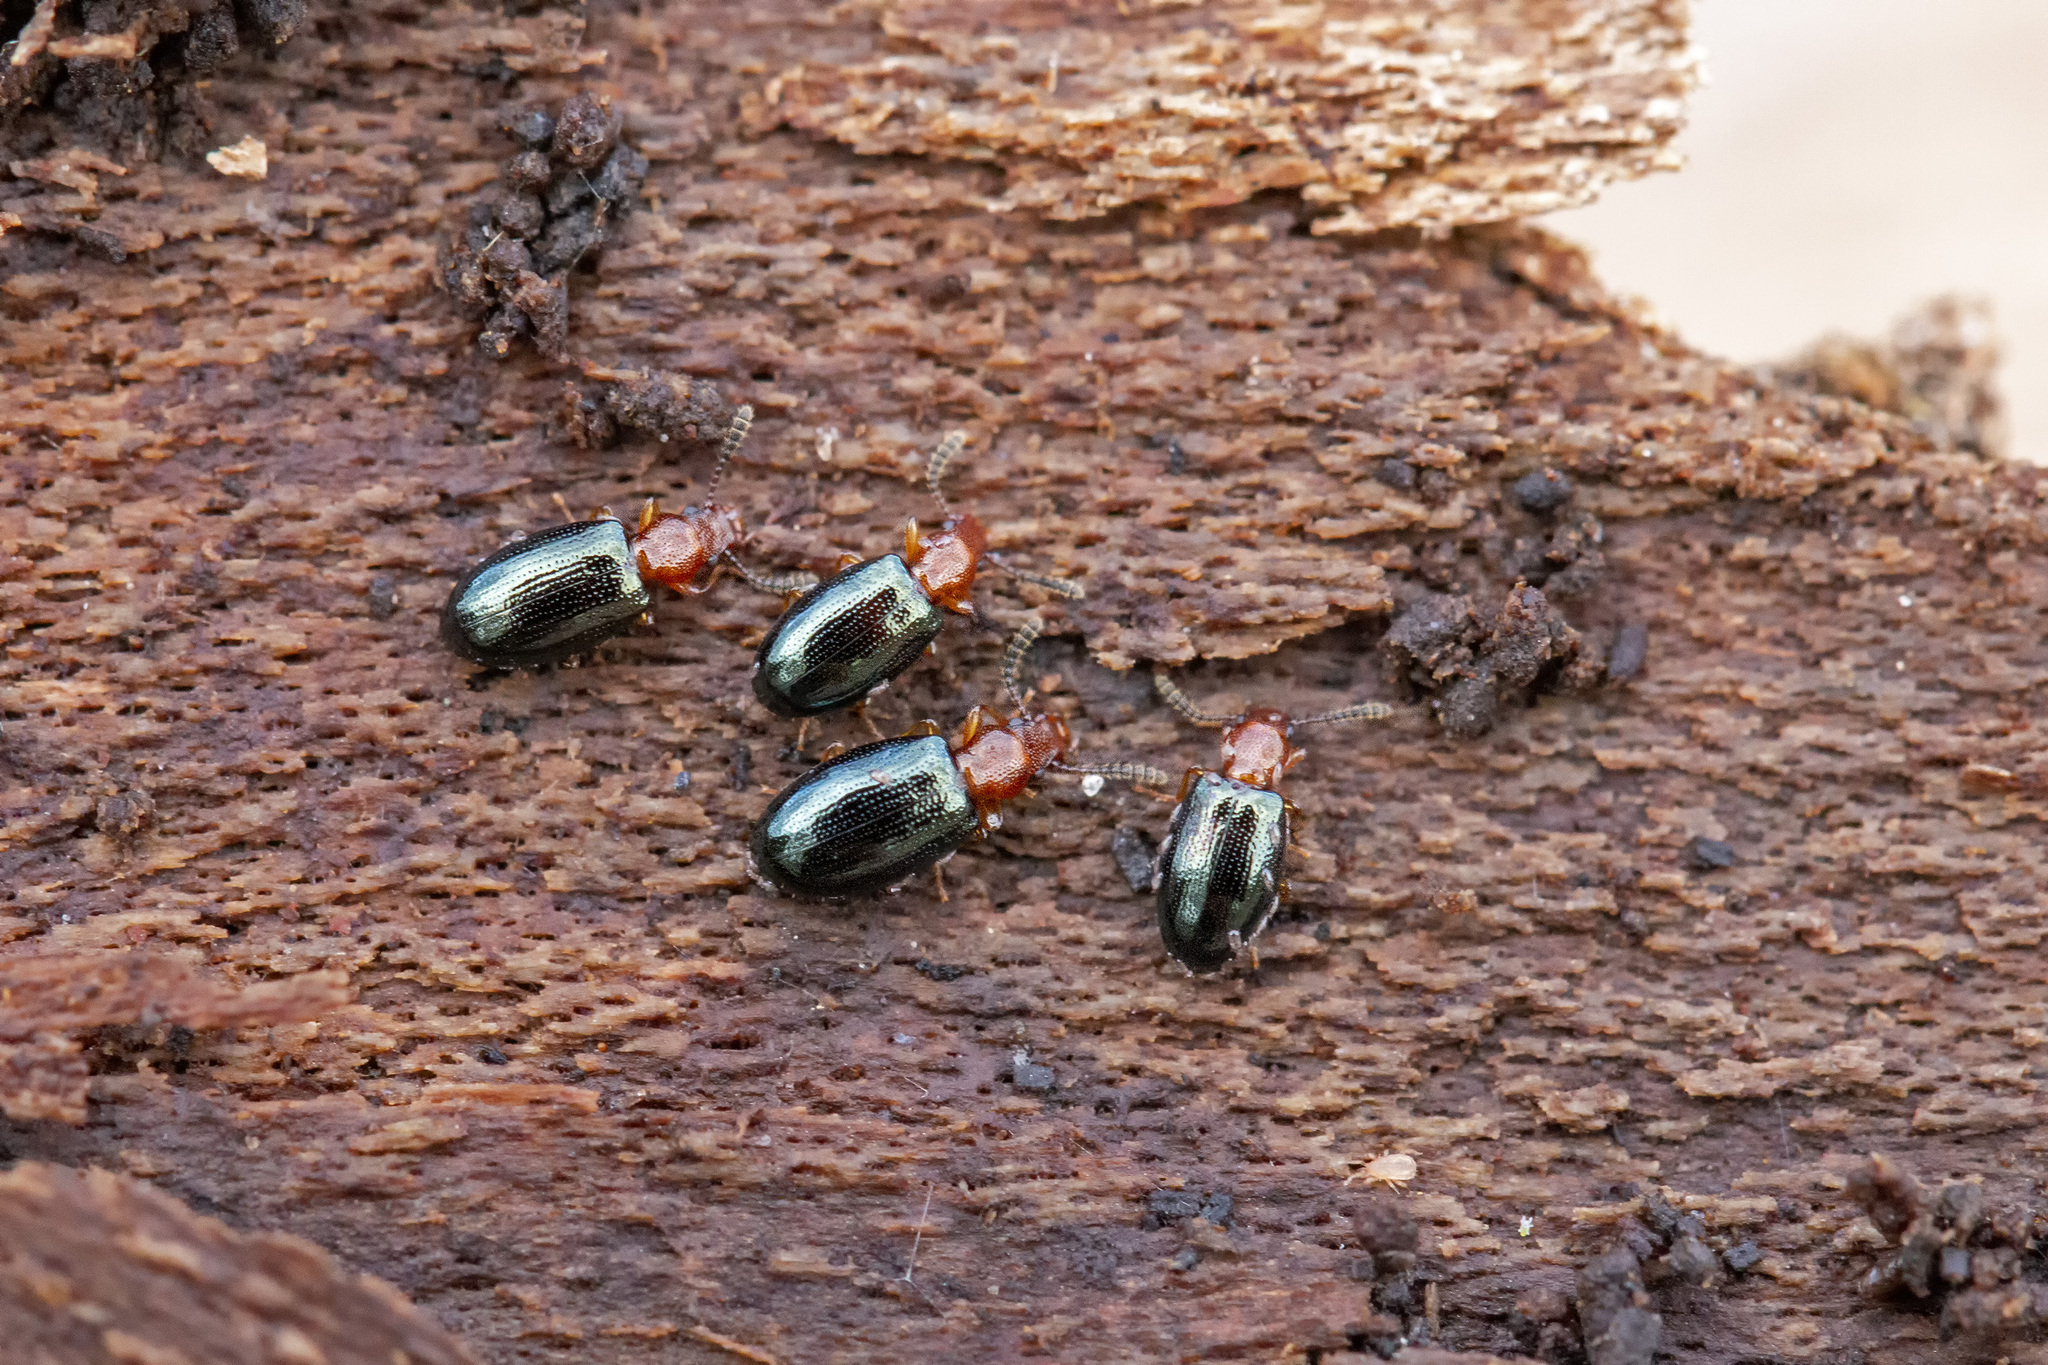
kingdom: Animalia
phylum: Arthropoda
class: Insecta
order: Coleoptera
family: Salpingidae
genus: Vincenzellus
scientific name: Vincenzellus ruficollis
